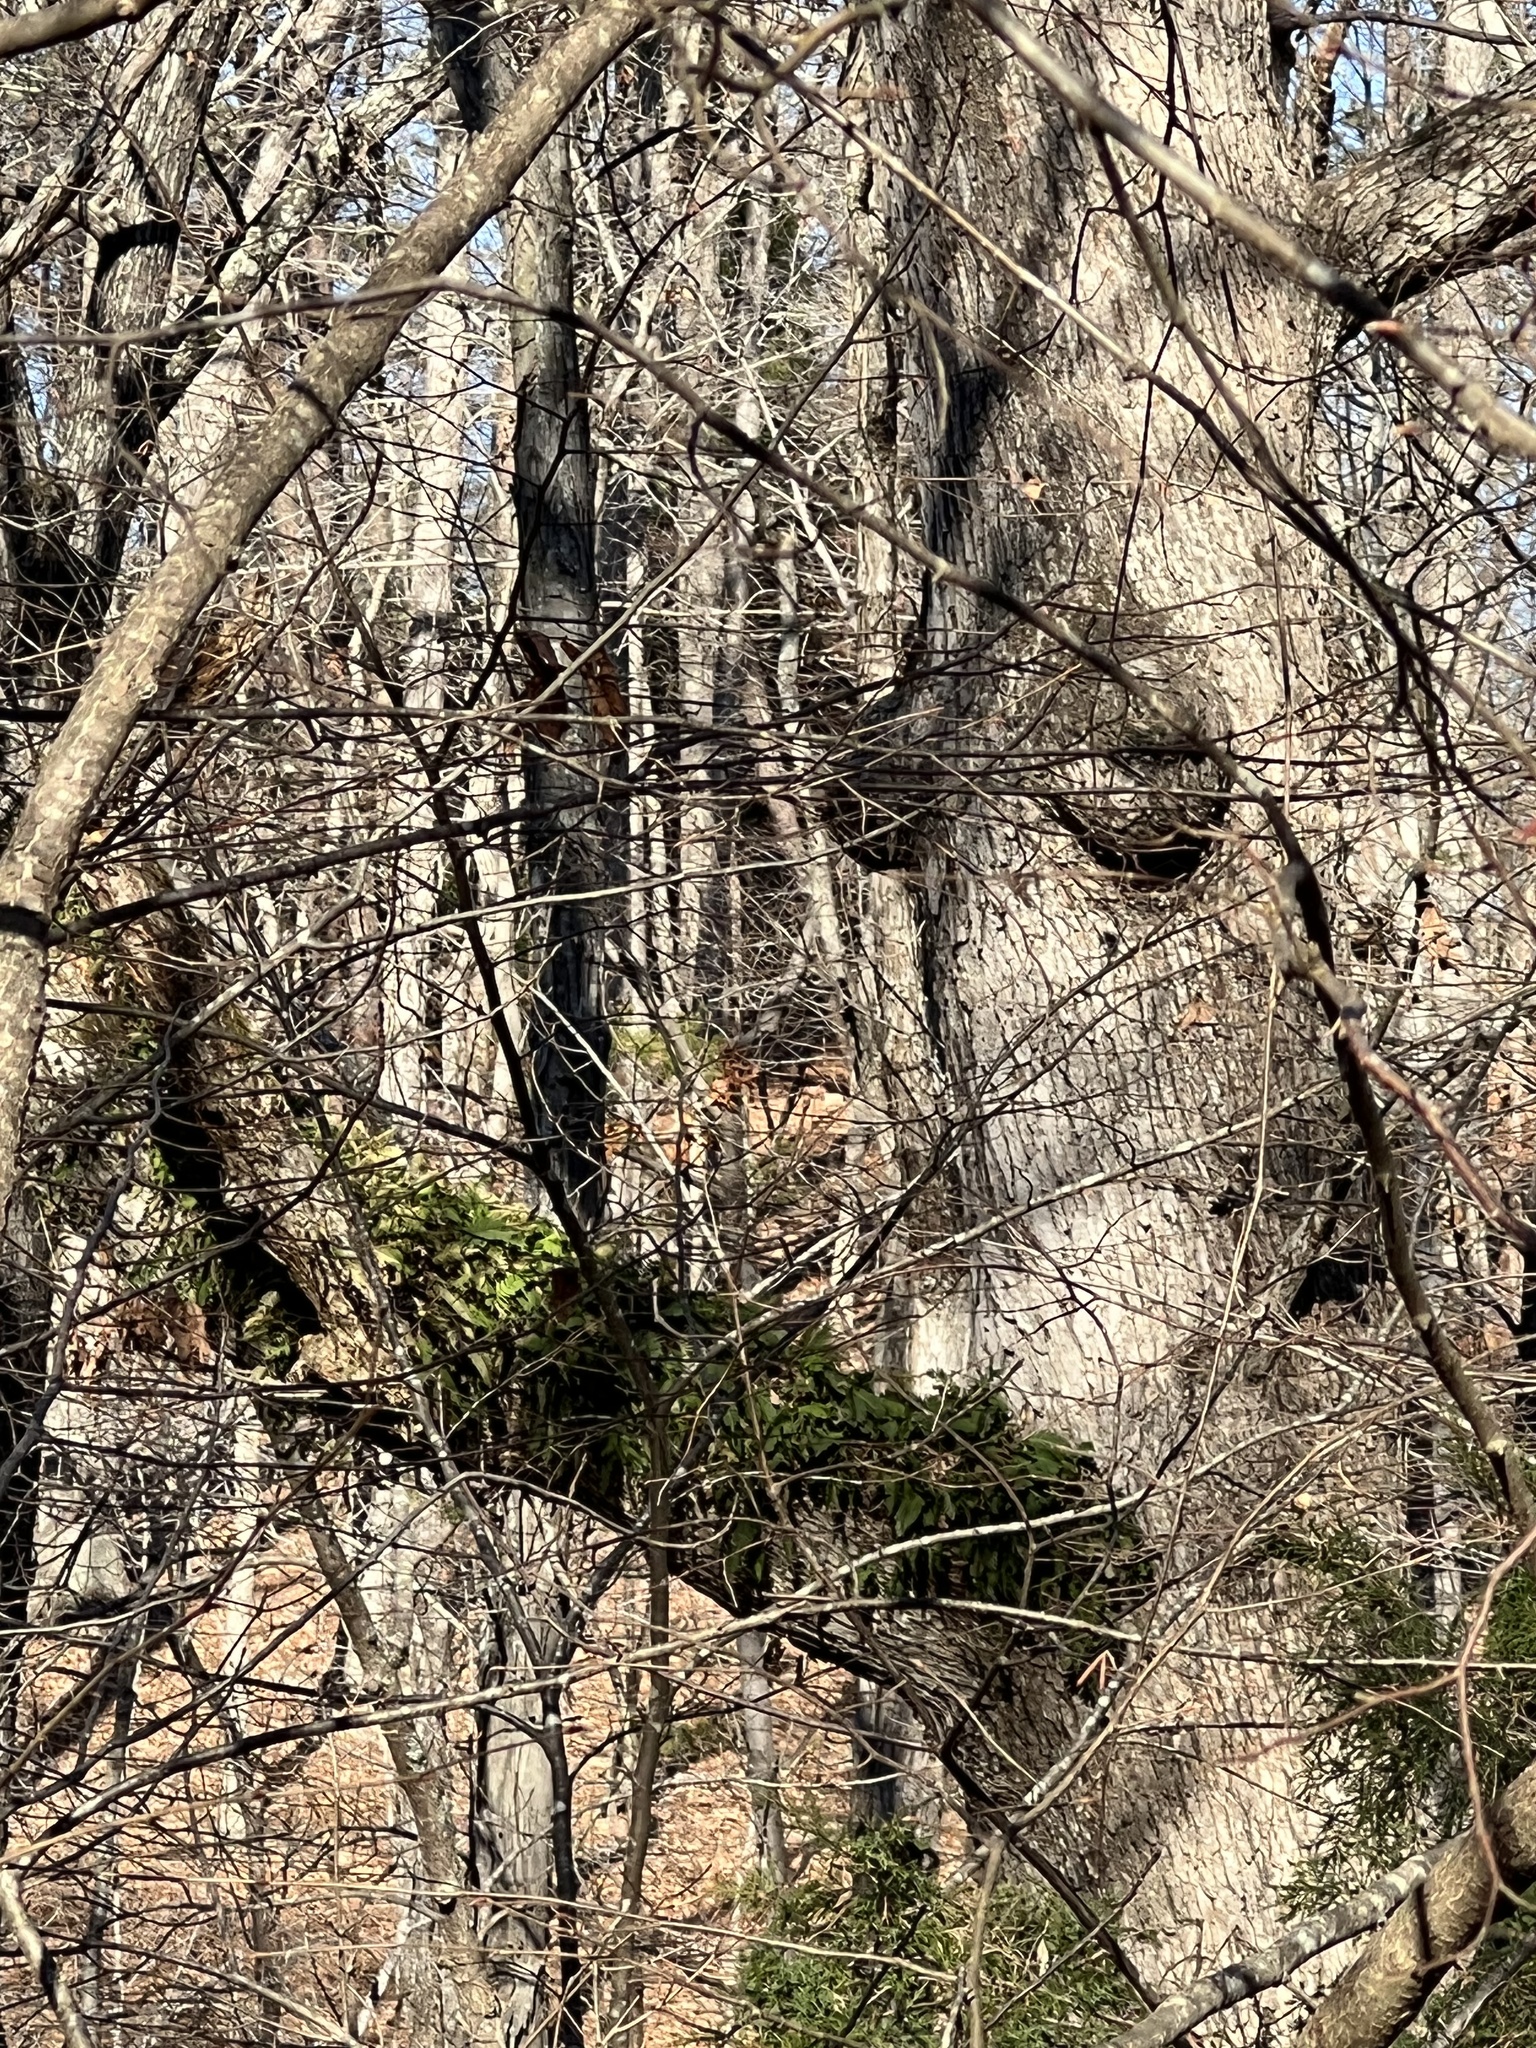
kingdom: Plantae
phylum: Tracheophyta
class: Polypodiopsida
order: Polypodiales
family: Polypodiaceae
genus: Pleopeltis
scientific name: Pleopeltis michauxiana
